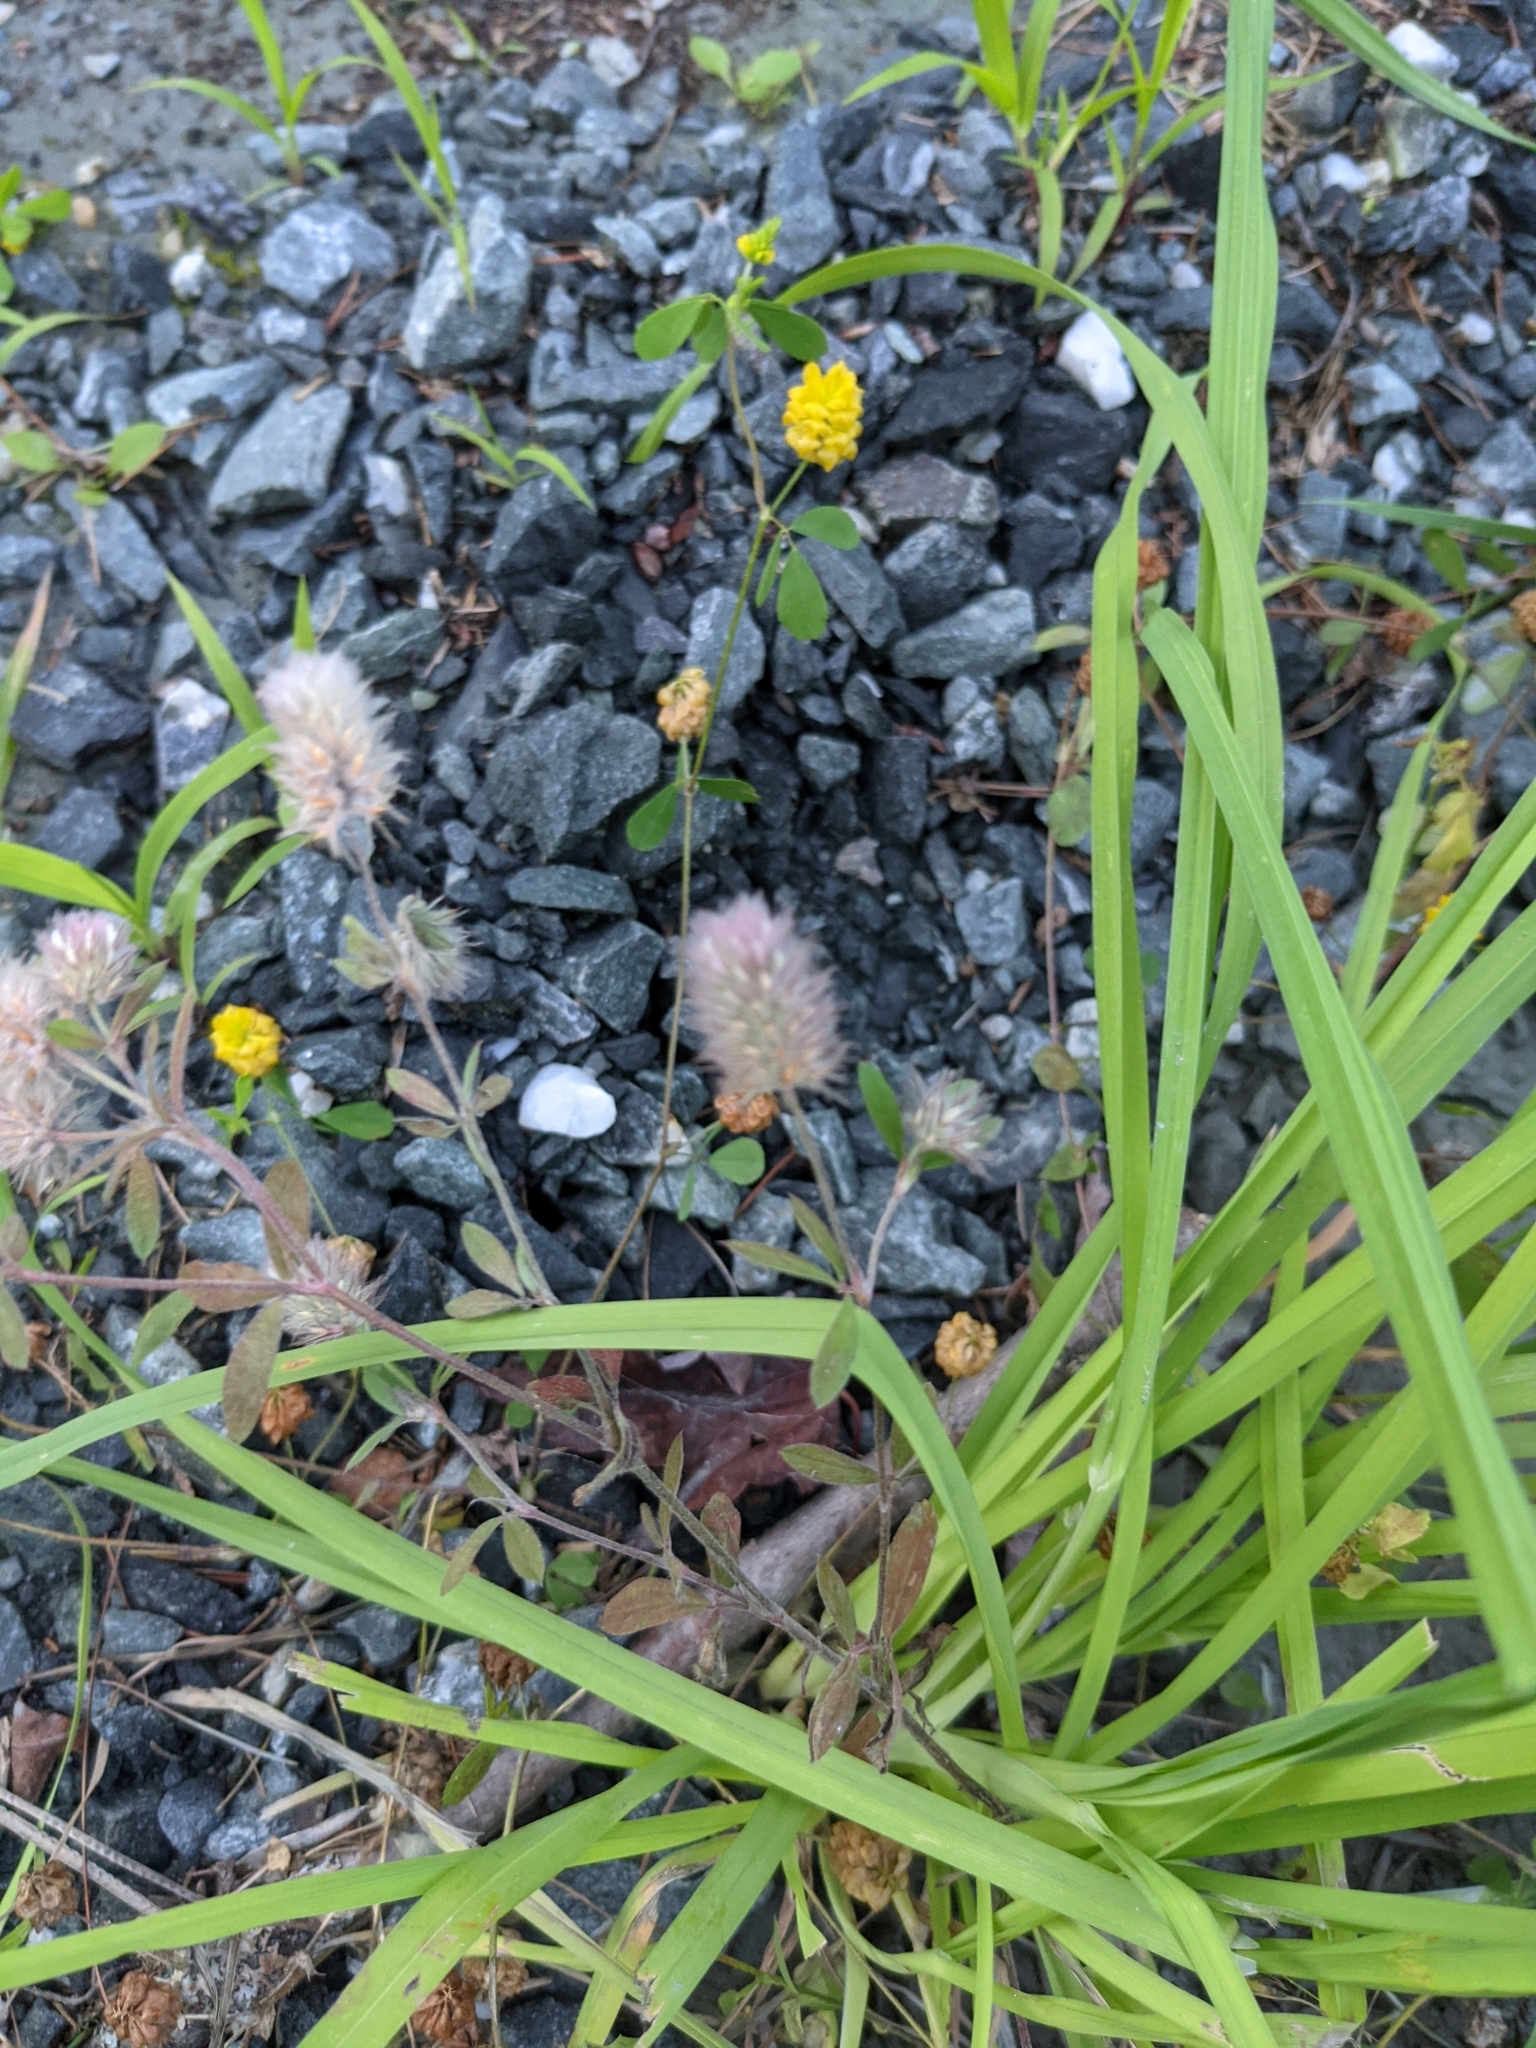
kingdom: Plantae
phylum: Tracheophyta
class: Magnoliopsida
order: Fabales
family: Fabaceae
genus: Trifolium
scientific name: Trifolium arvense
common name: Hare's-foot clover
